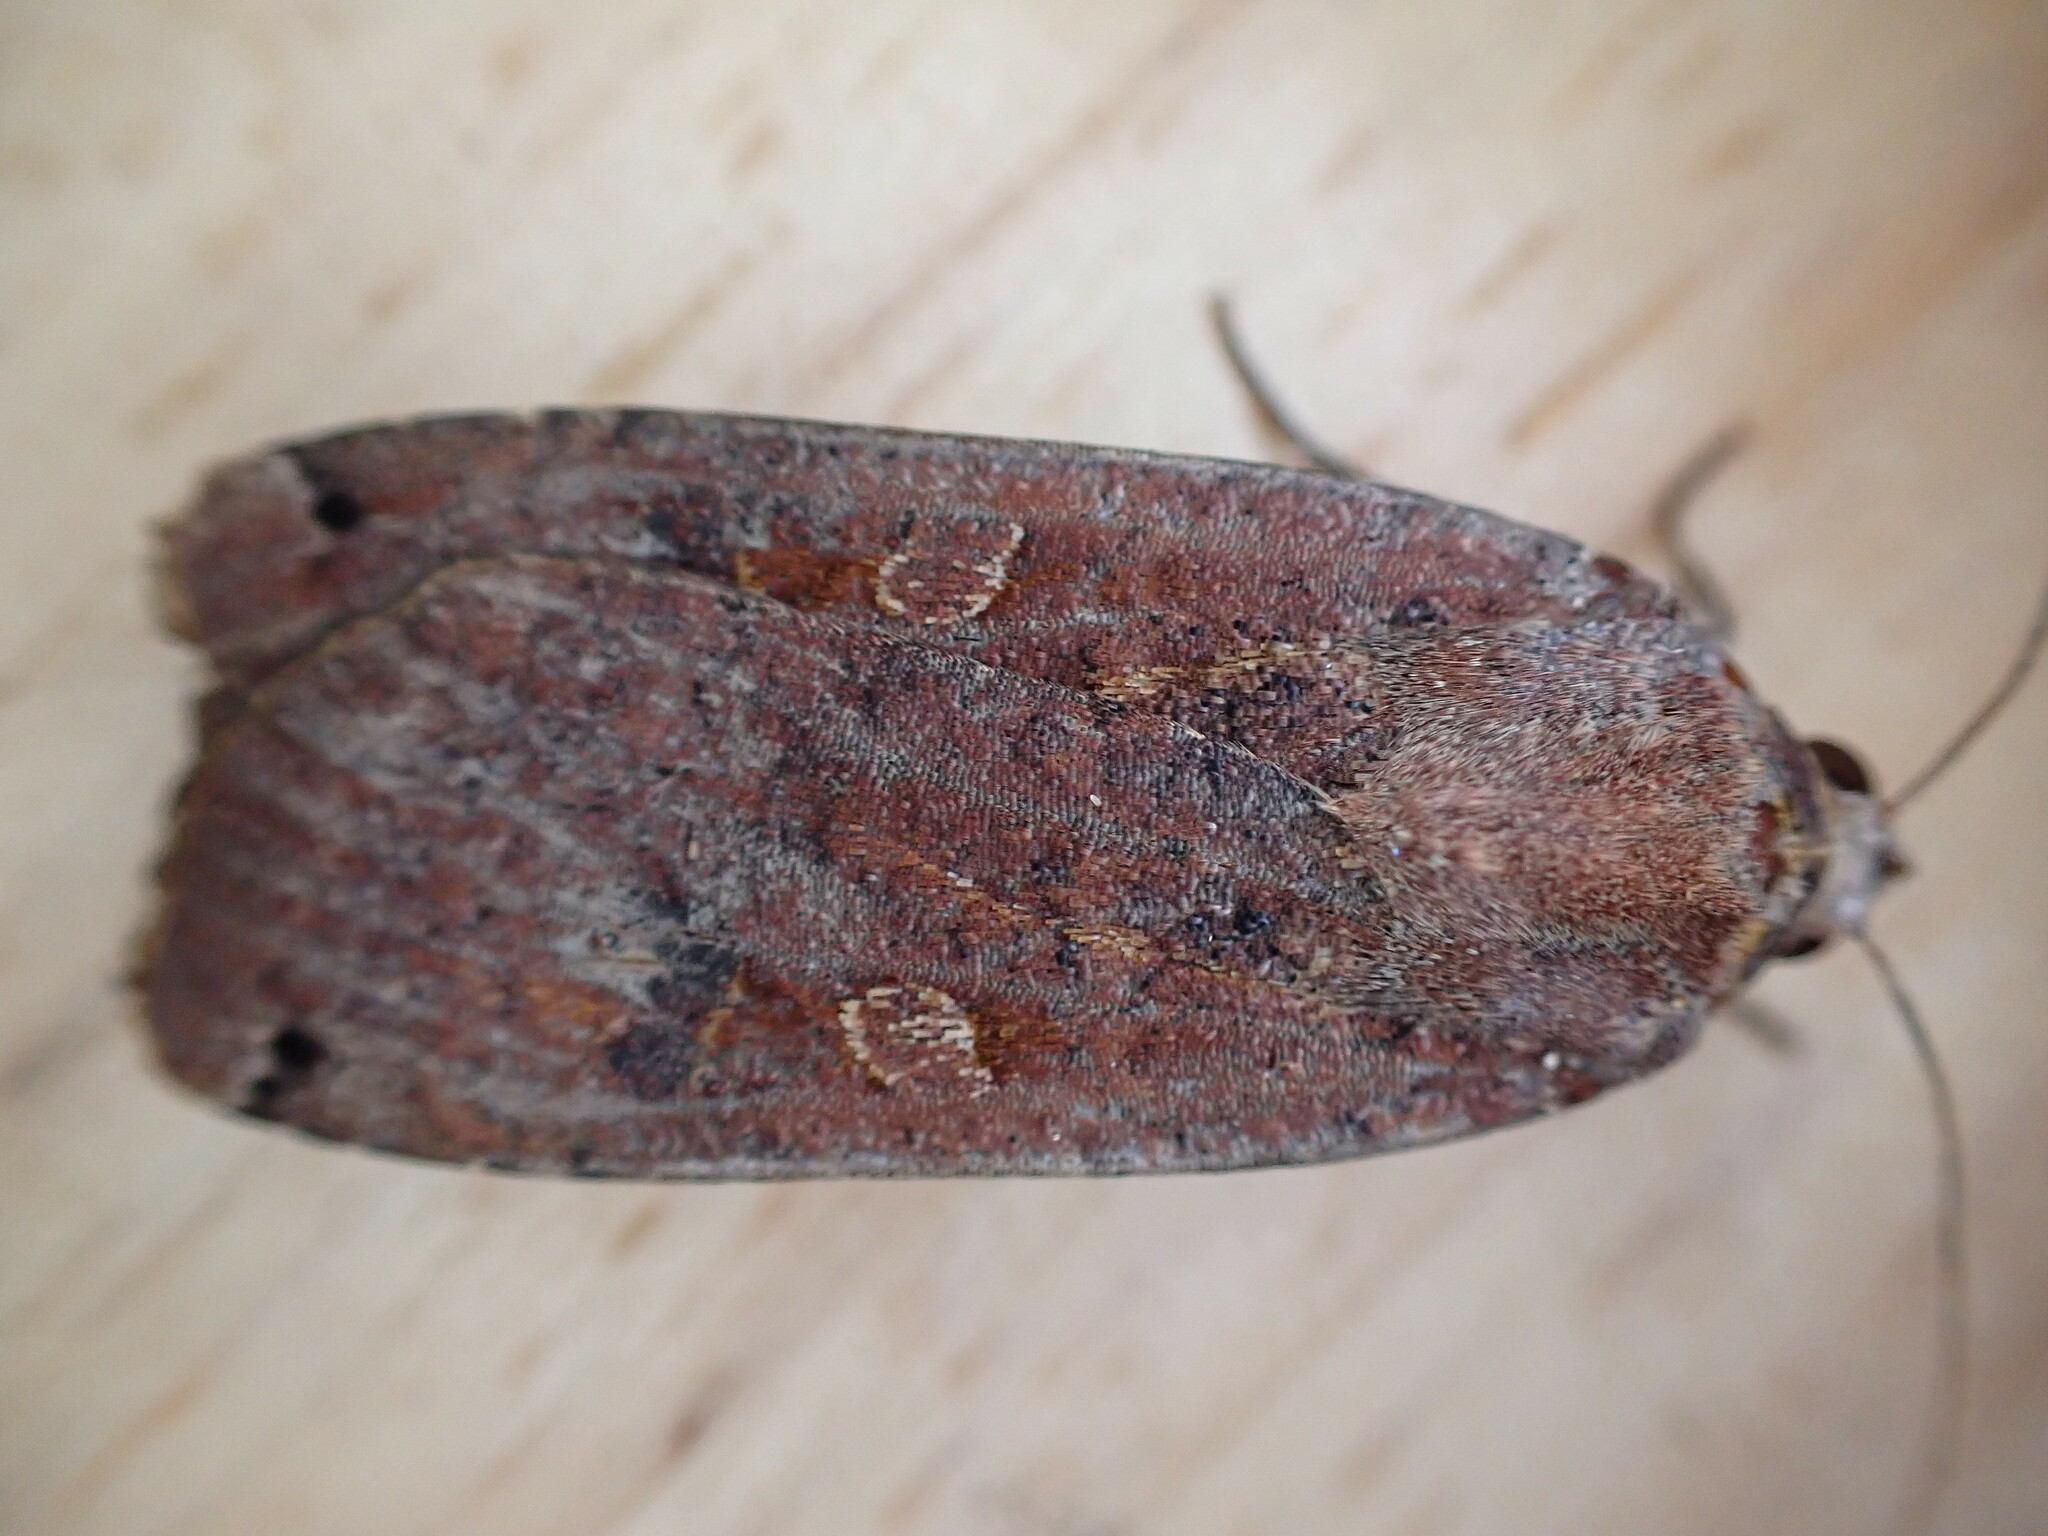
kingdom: Animalia
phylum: Arthropoda
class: Insecta
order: Lepidoptera
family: Noctuidae
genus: Noctua
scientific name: Noctua pronuba
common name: Large yellow underwing
